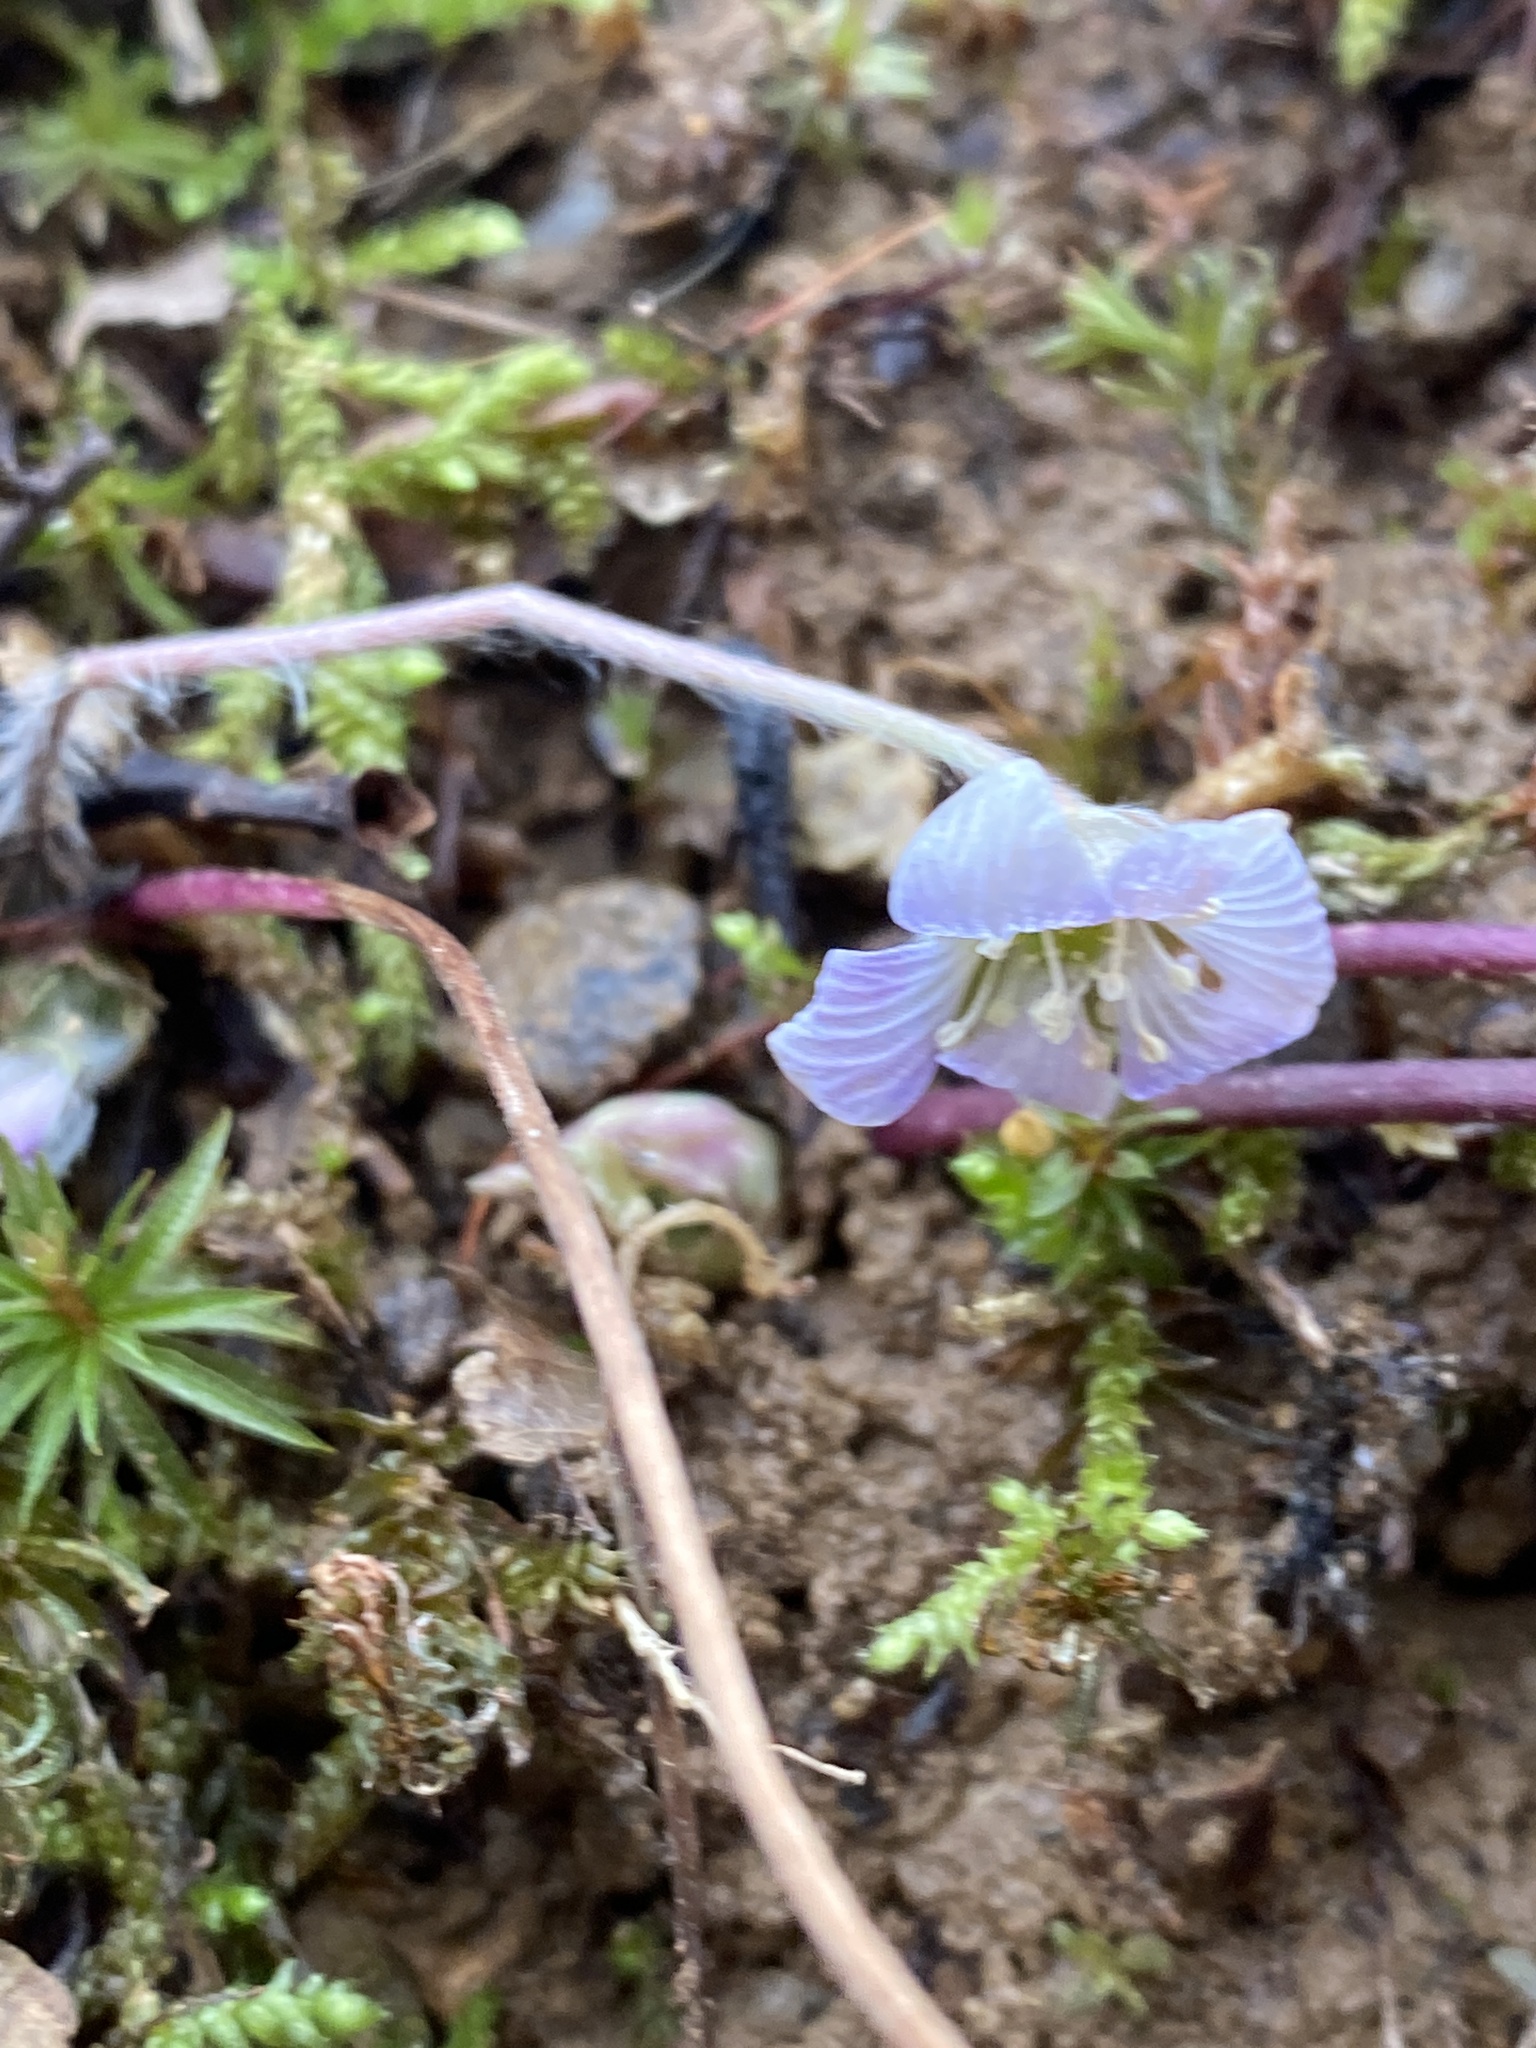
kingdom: Plantae
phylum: Tracheophyta
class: Magnoliopsida
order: Ranunculales
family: Ranunculaceae
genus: Hepatica
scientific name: Hepatica americana
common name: American hepatica
